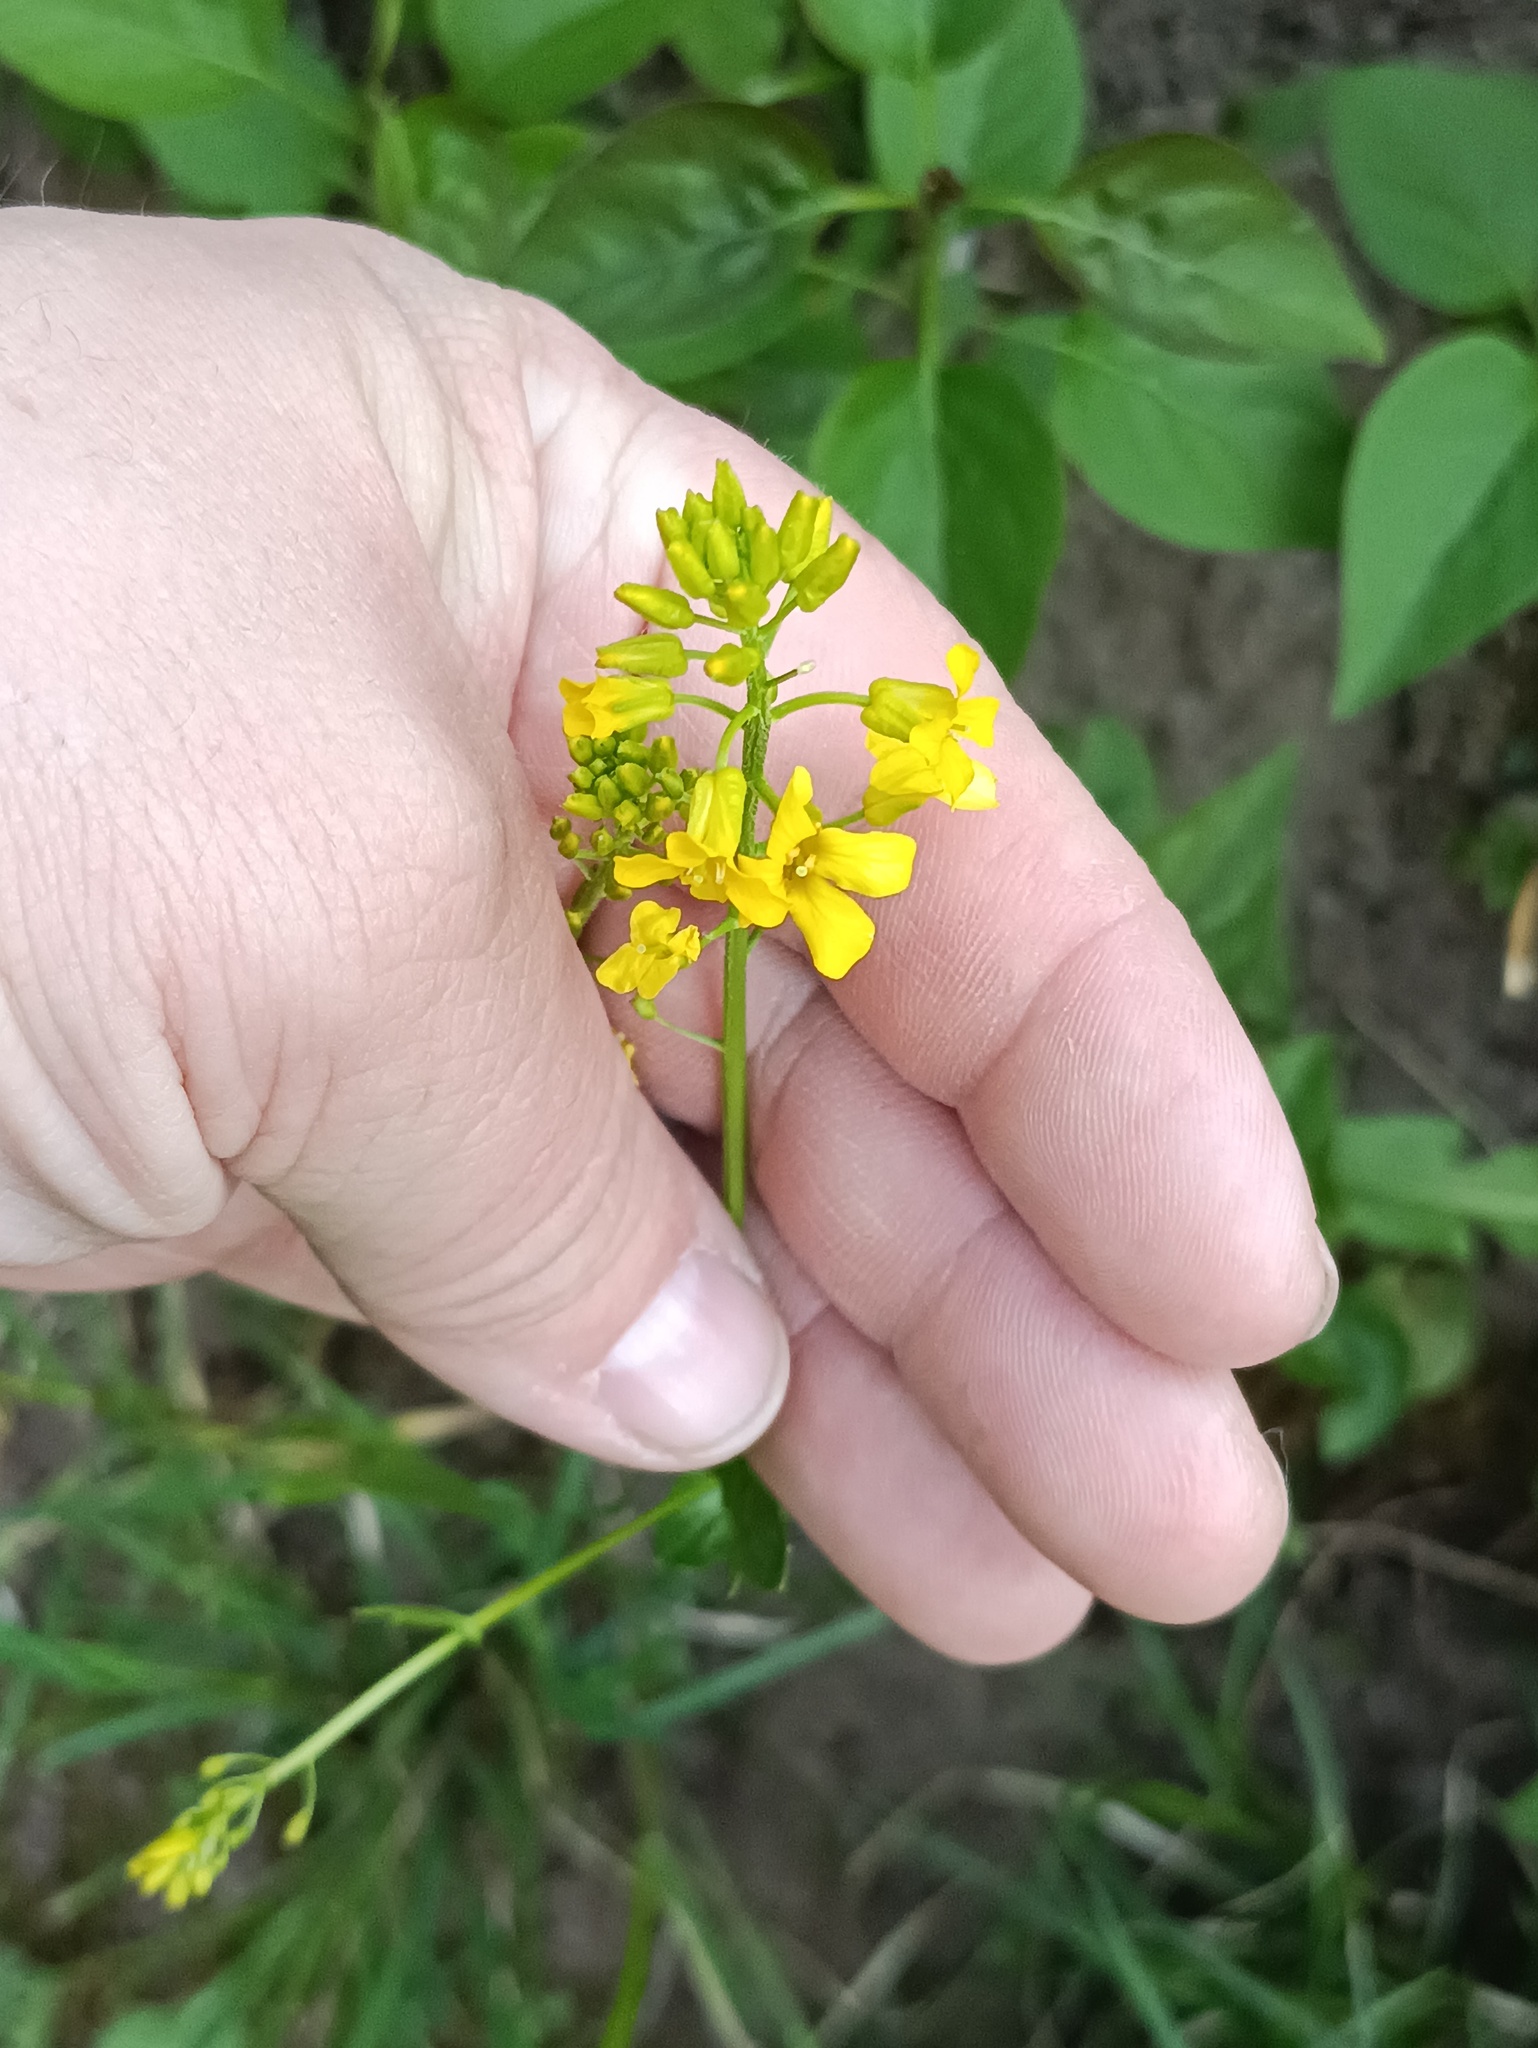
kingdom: Plantae
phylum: Tracheophyta
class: Magnoliopsida
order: Brassicales
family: Brassicaceae
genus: Barbarea
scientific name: Barbarea vulgaris
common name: Cressy-greens
